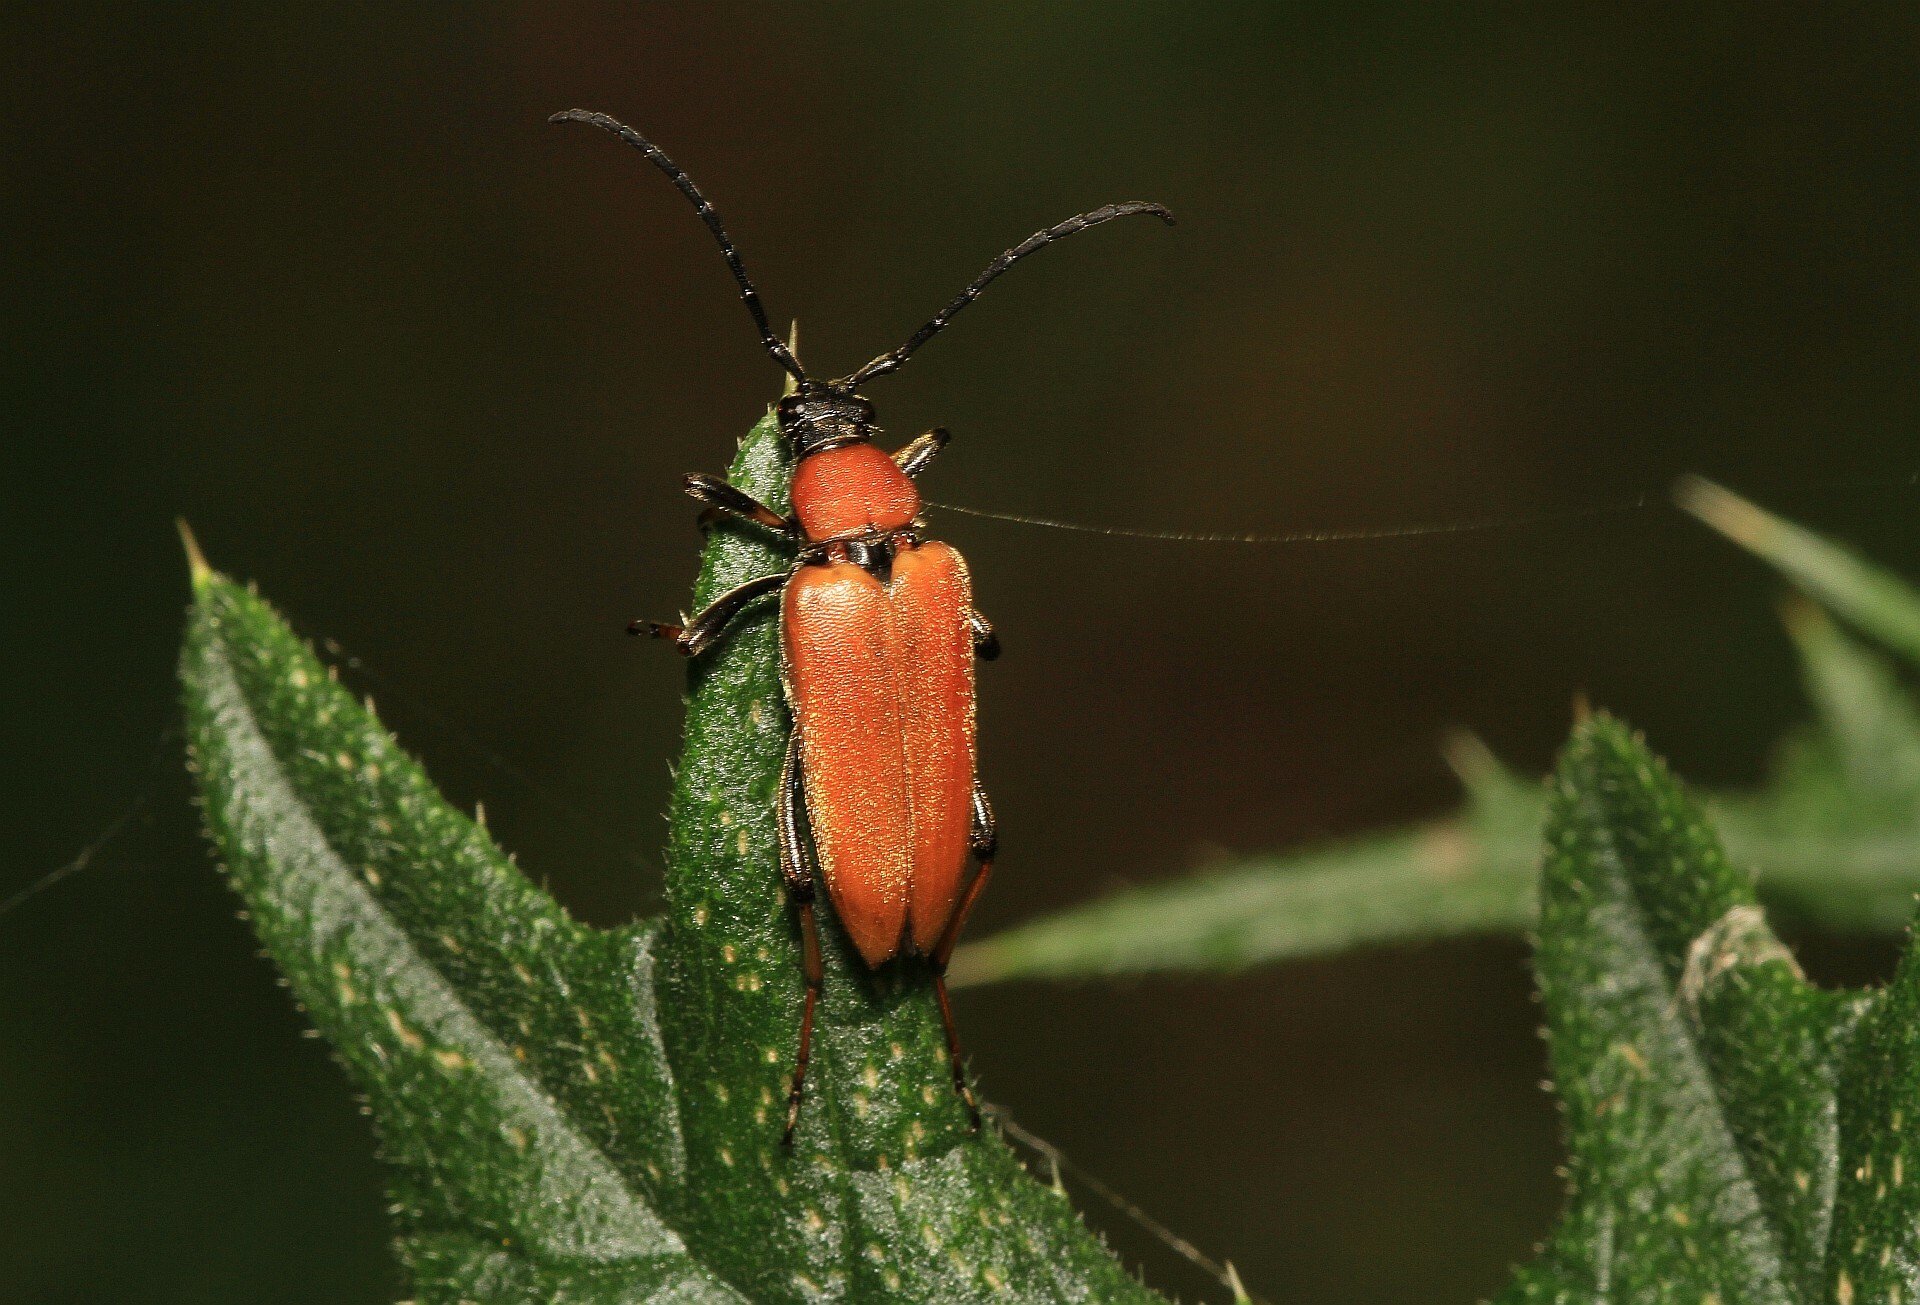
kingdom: Animalia
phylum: Arthropoda
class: Insecta
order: Coleoptera
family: Cerambycidae
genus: Stictoleptura
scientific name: Stictoleptura rubra
